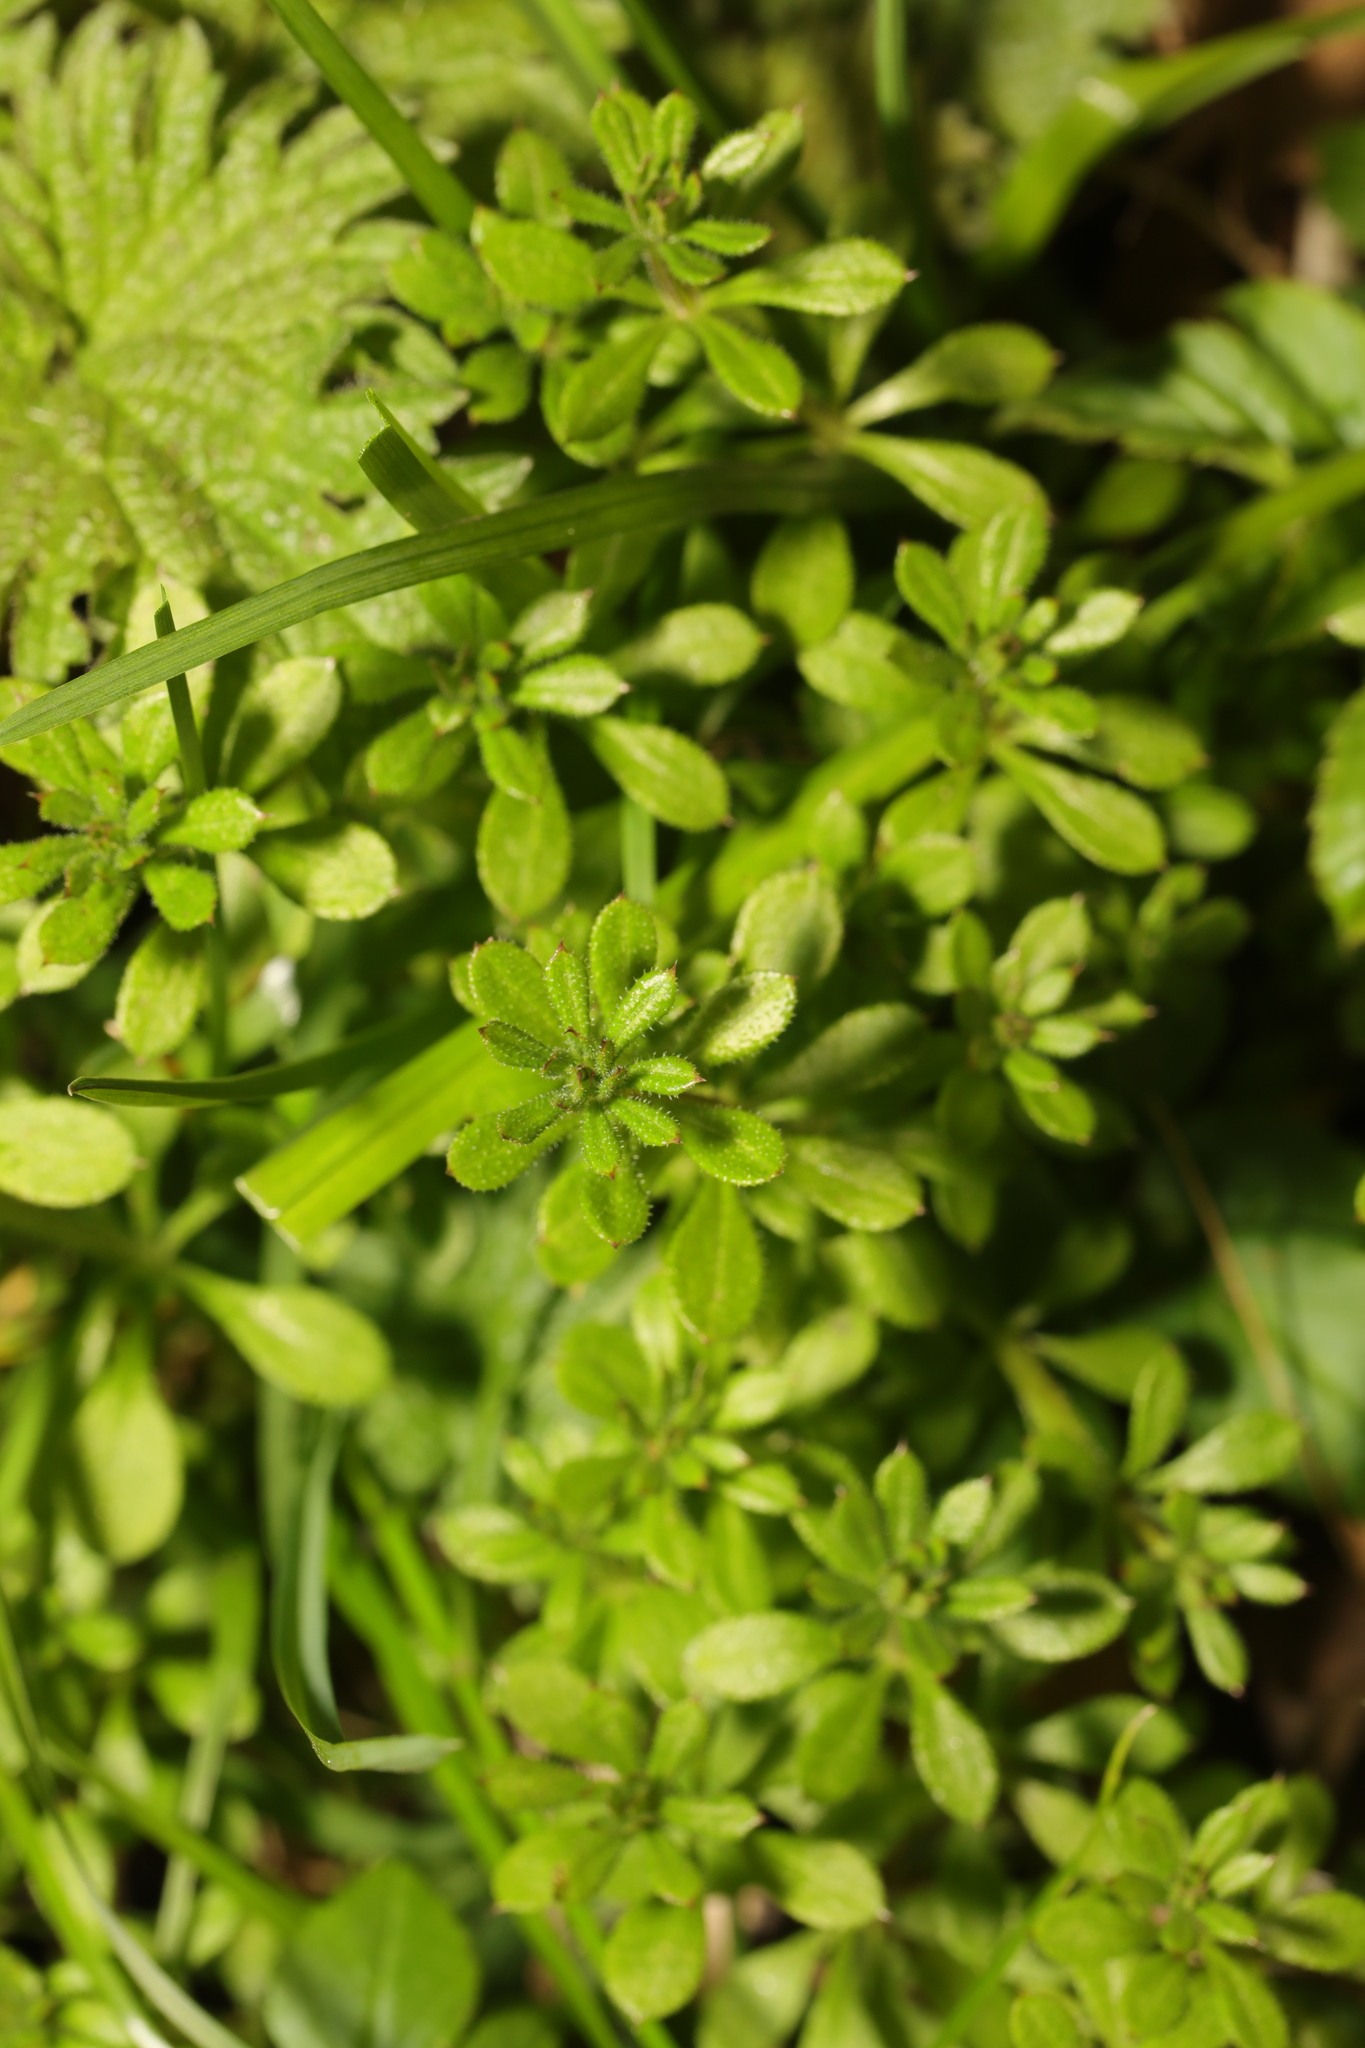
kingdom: Plantae
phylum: Tracheophyta
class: Magnoliopsida
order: Gentianales
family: Rubiaceae
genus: Galium
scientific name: Galium aparine
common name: Cleavers
